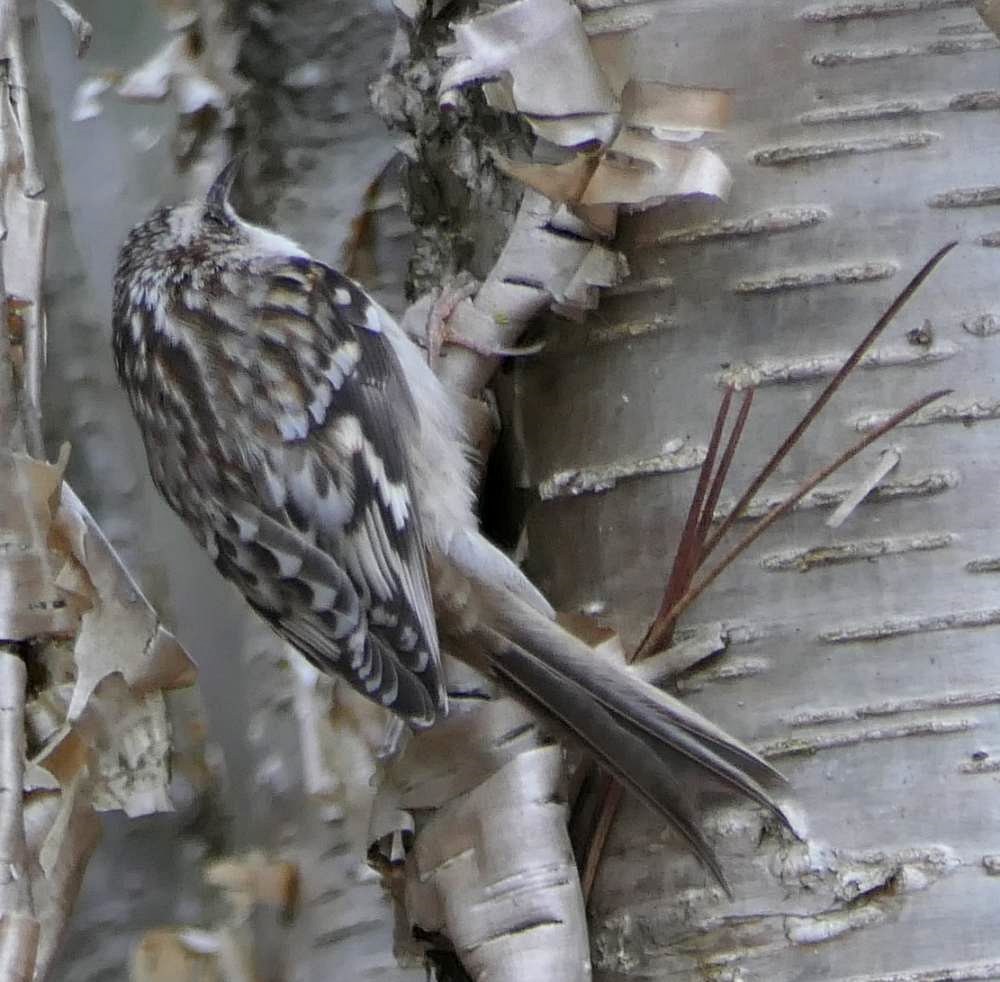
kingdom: Animalia
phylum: Chordata
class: Aves
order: Passeriformes
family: Certhiidae
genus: Certhia
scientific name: Certhia americana
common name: Brown creeper
